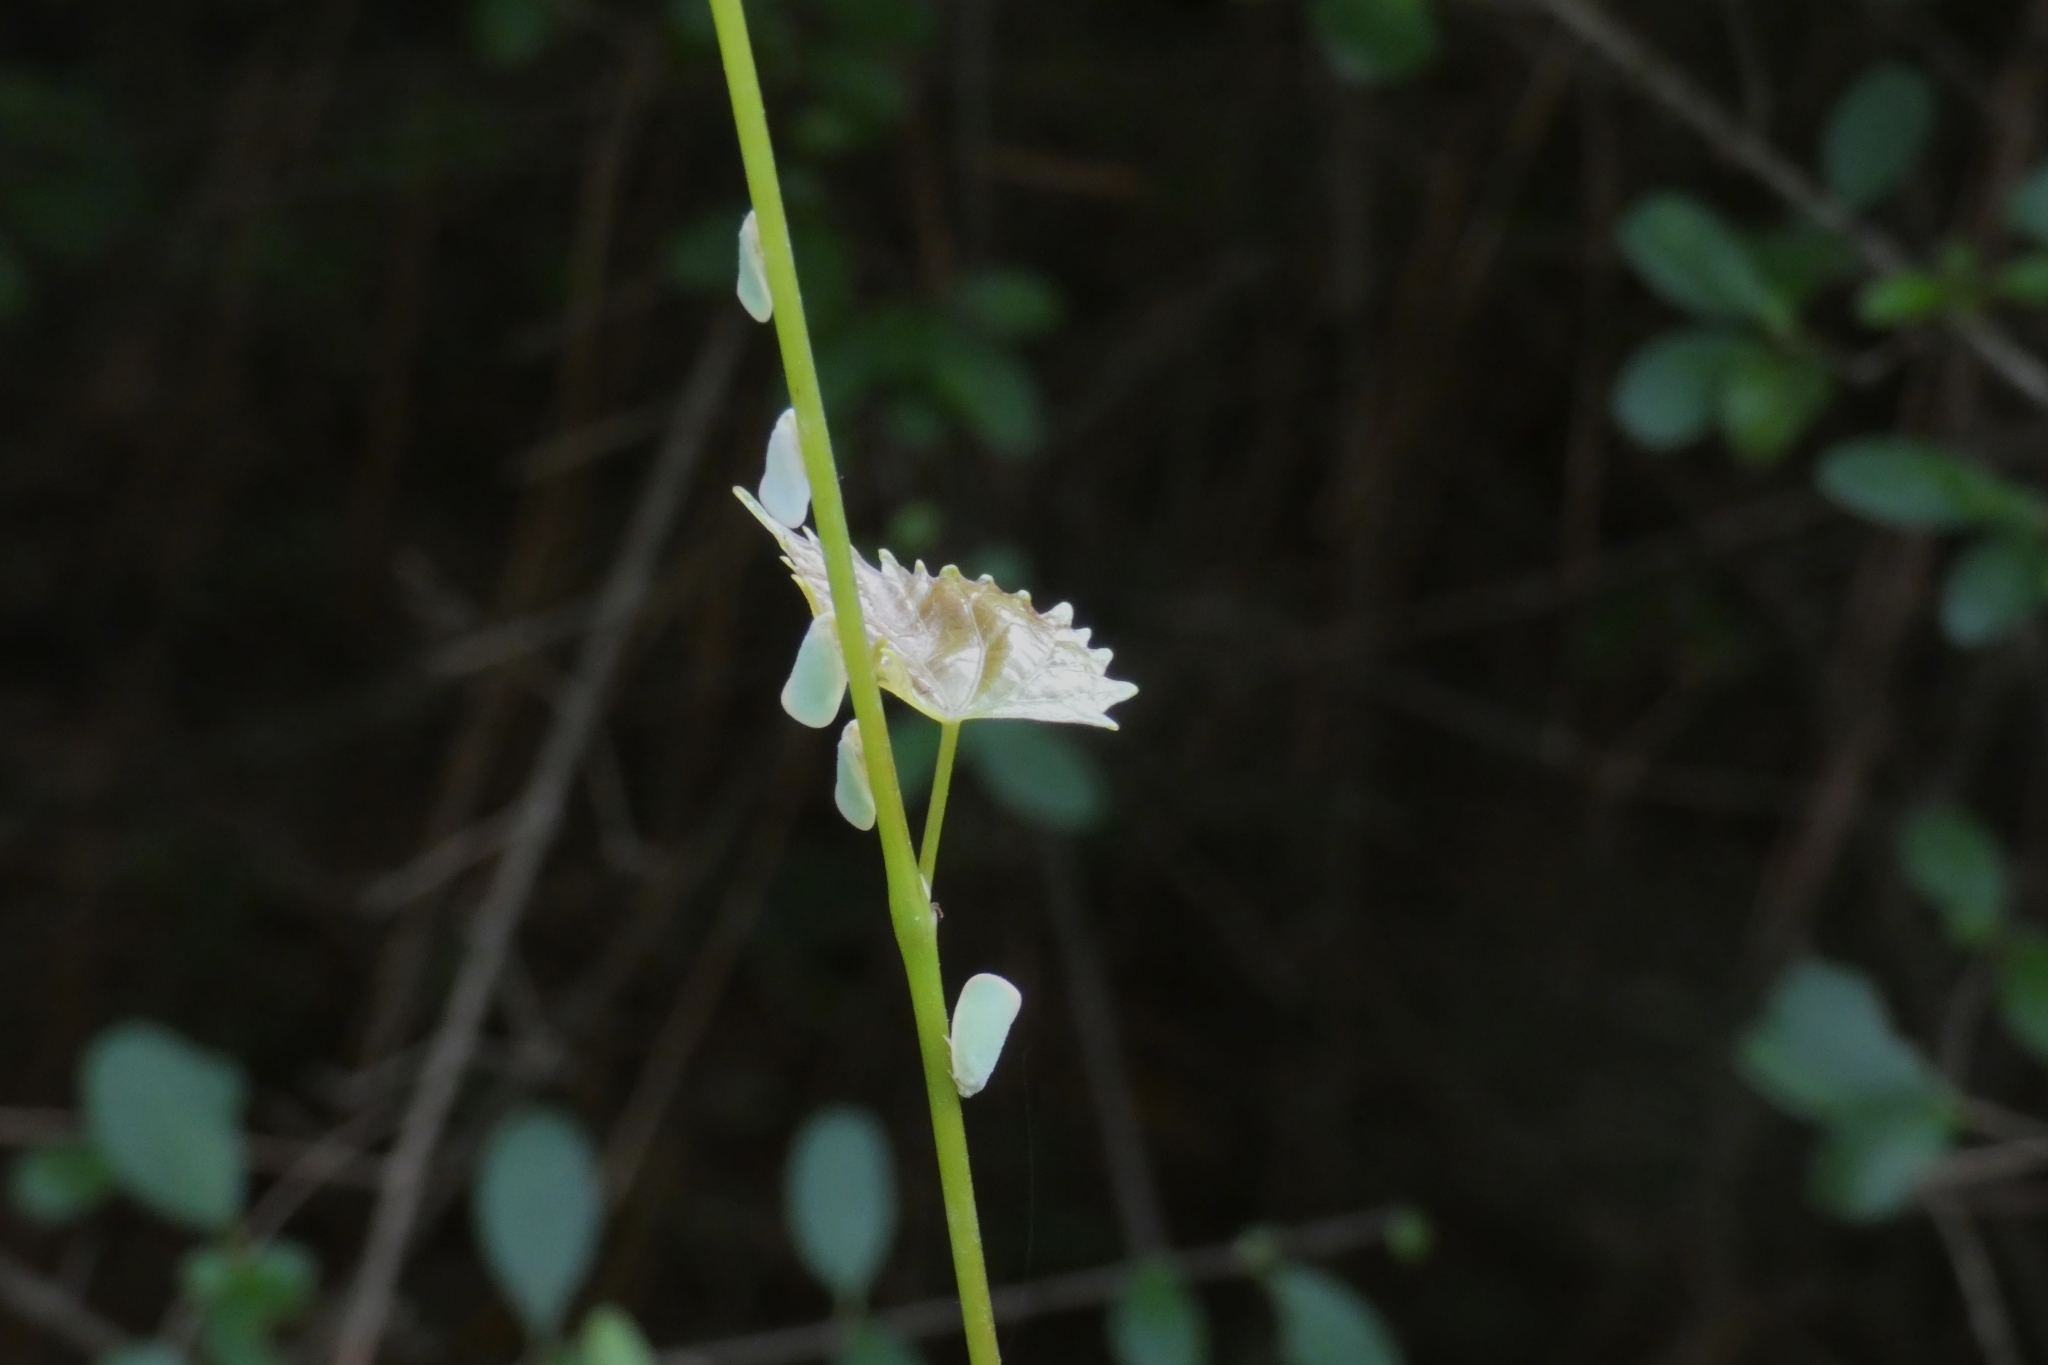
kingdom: Animalia
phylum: Arthropoda
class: Insecta
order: Hemiptera
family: Flatidae
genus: Ormenoides
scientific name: Ormenoides venusta
